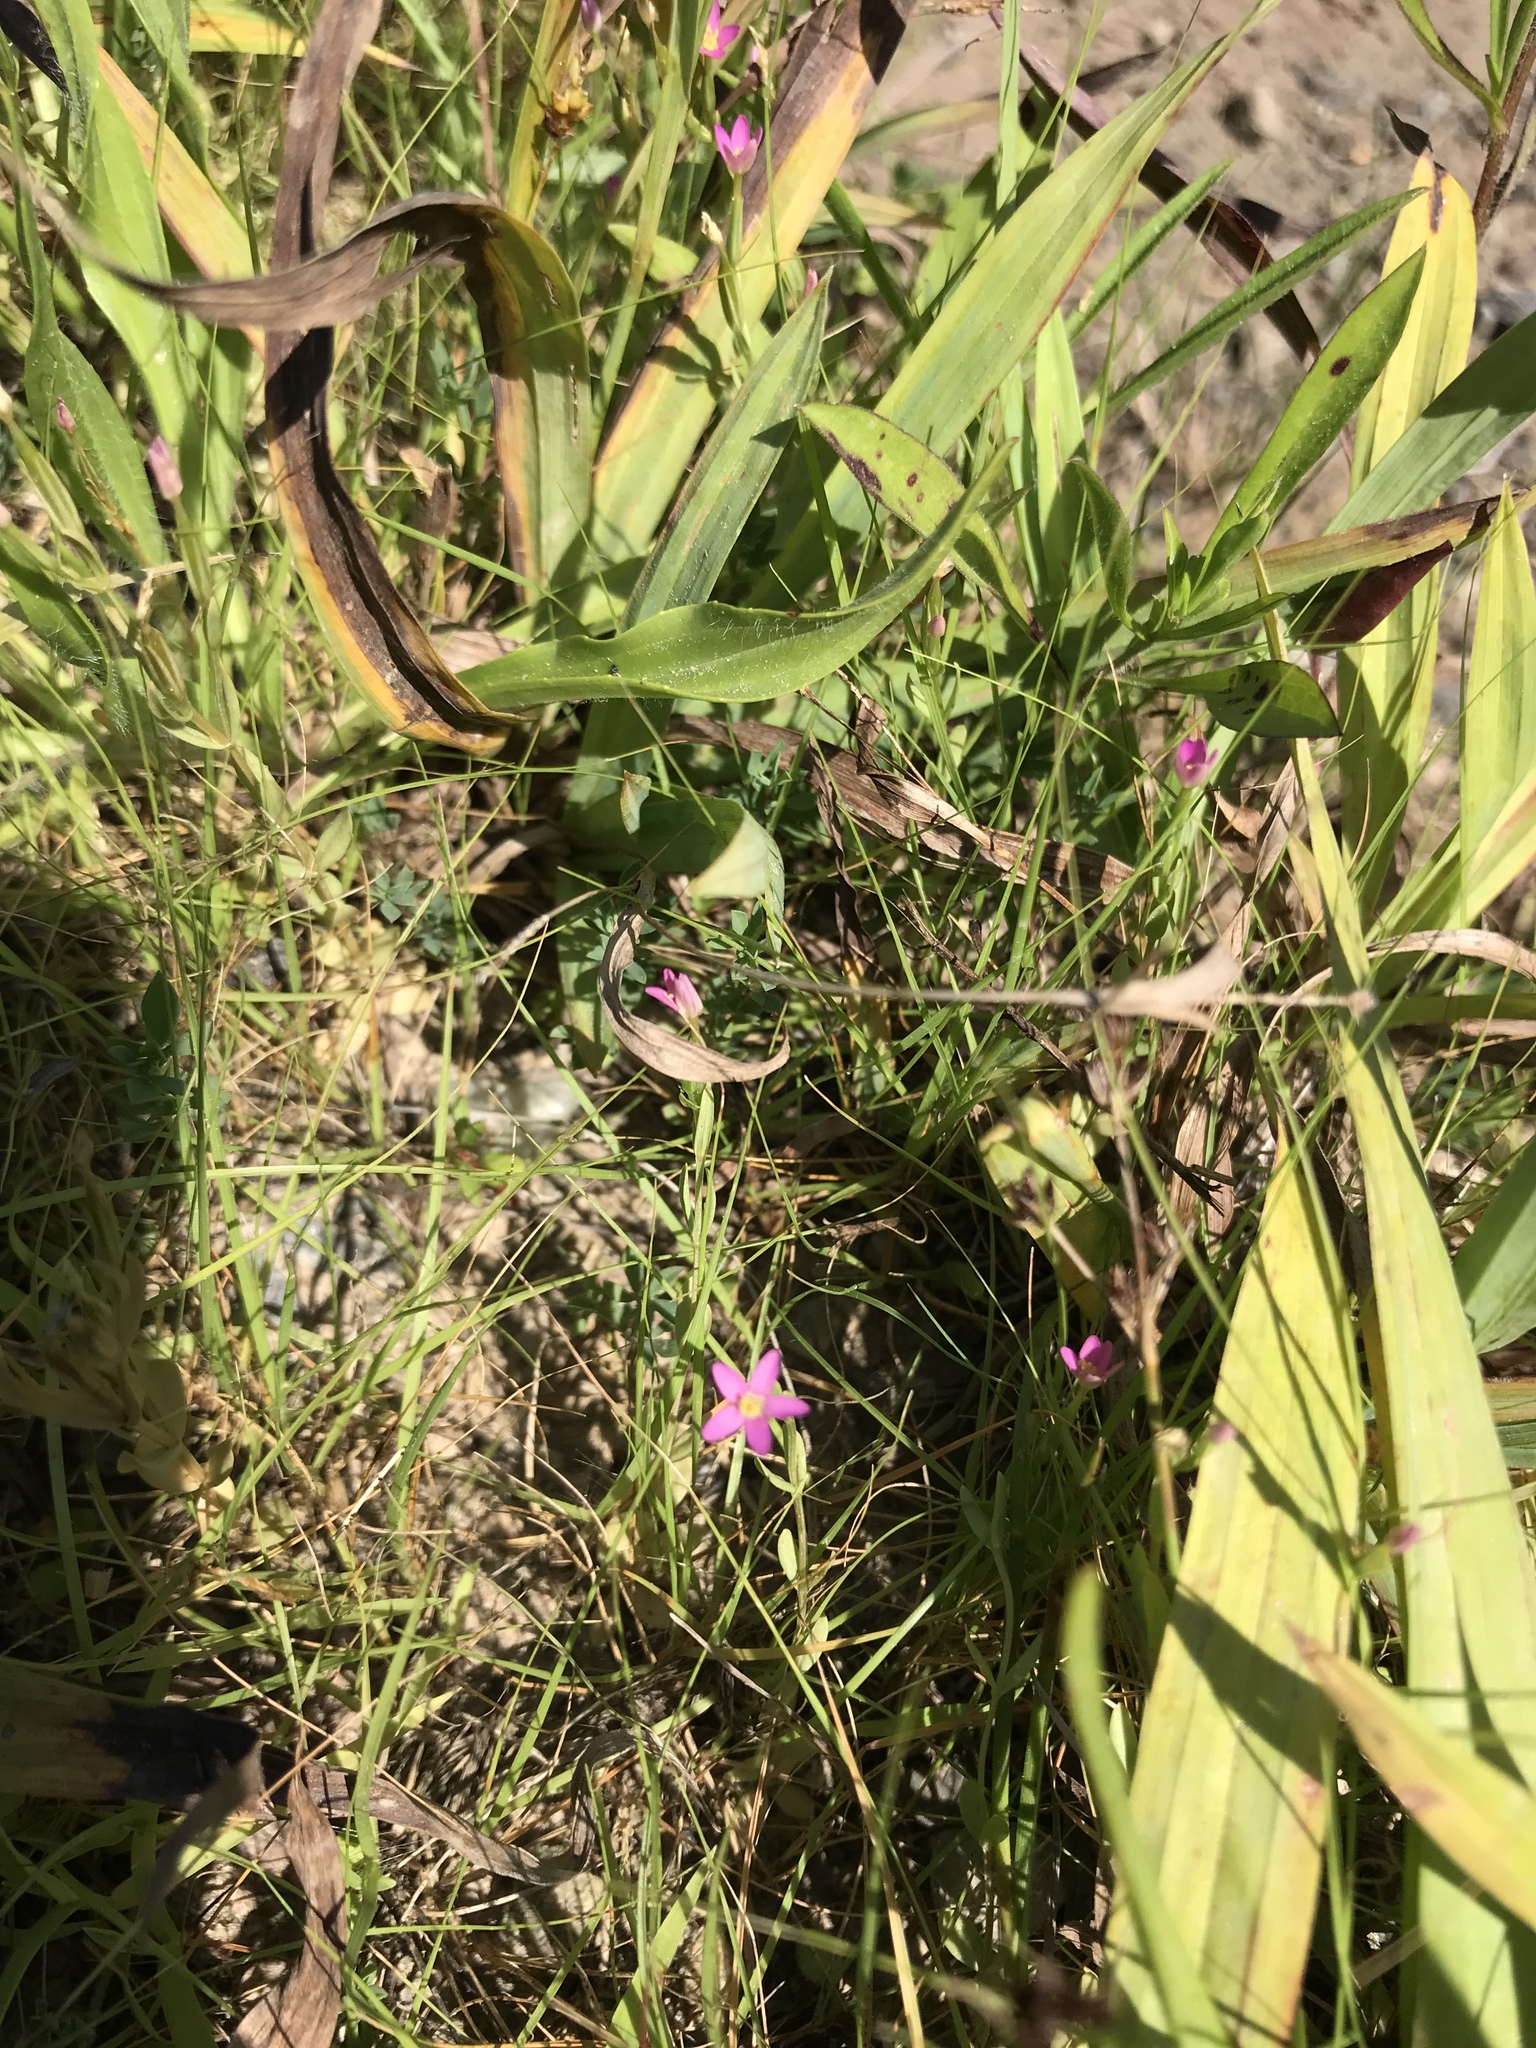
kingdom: Plantae
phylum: Tracheophyta
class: Magnoliopsida
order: Gentianales
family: Gentianaceae
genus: Centaurium
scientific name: Centaurium pulchellum
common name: Lesser centaury
